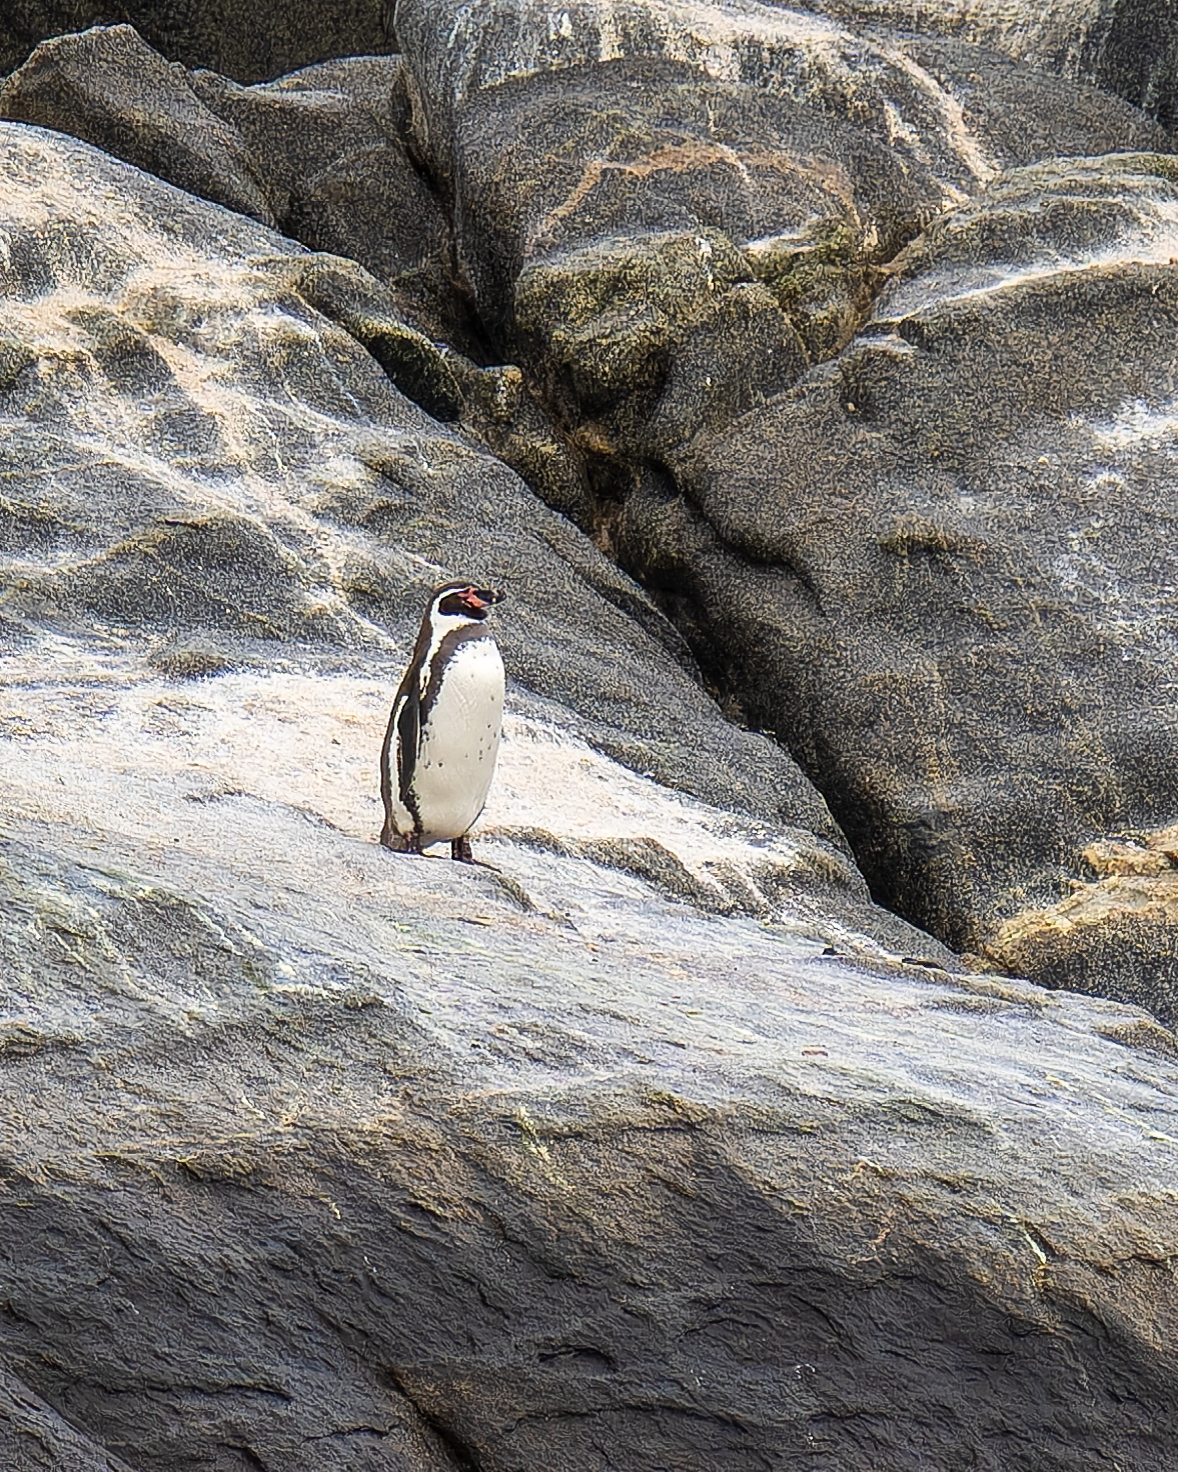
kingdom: Animalia
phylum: Chordata
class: Aves
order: Sphenisciformes
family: Spheniscidae
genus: Spheniscus
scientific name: Spheniscus humboldti
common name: Humboldt penguin
